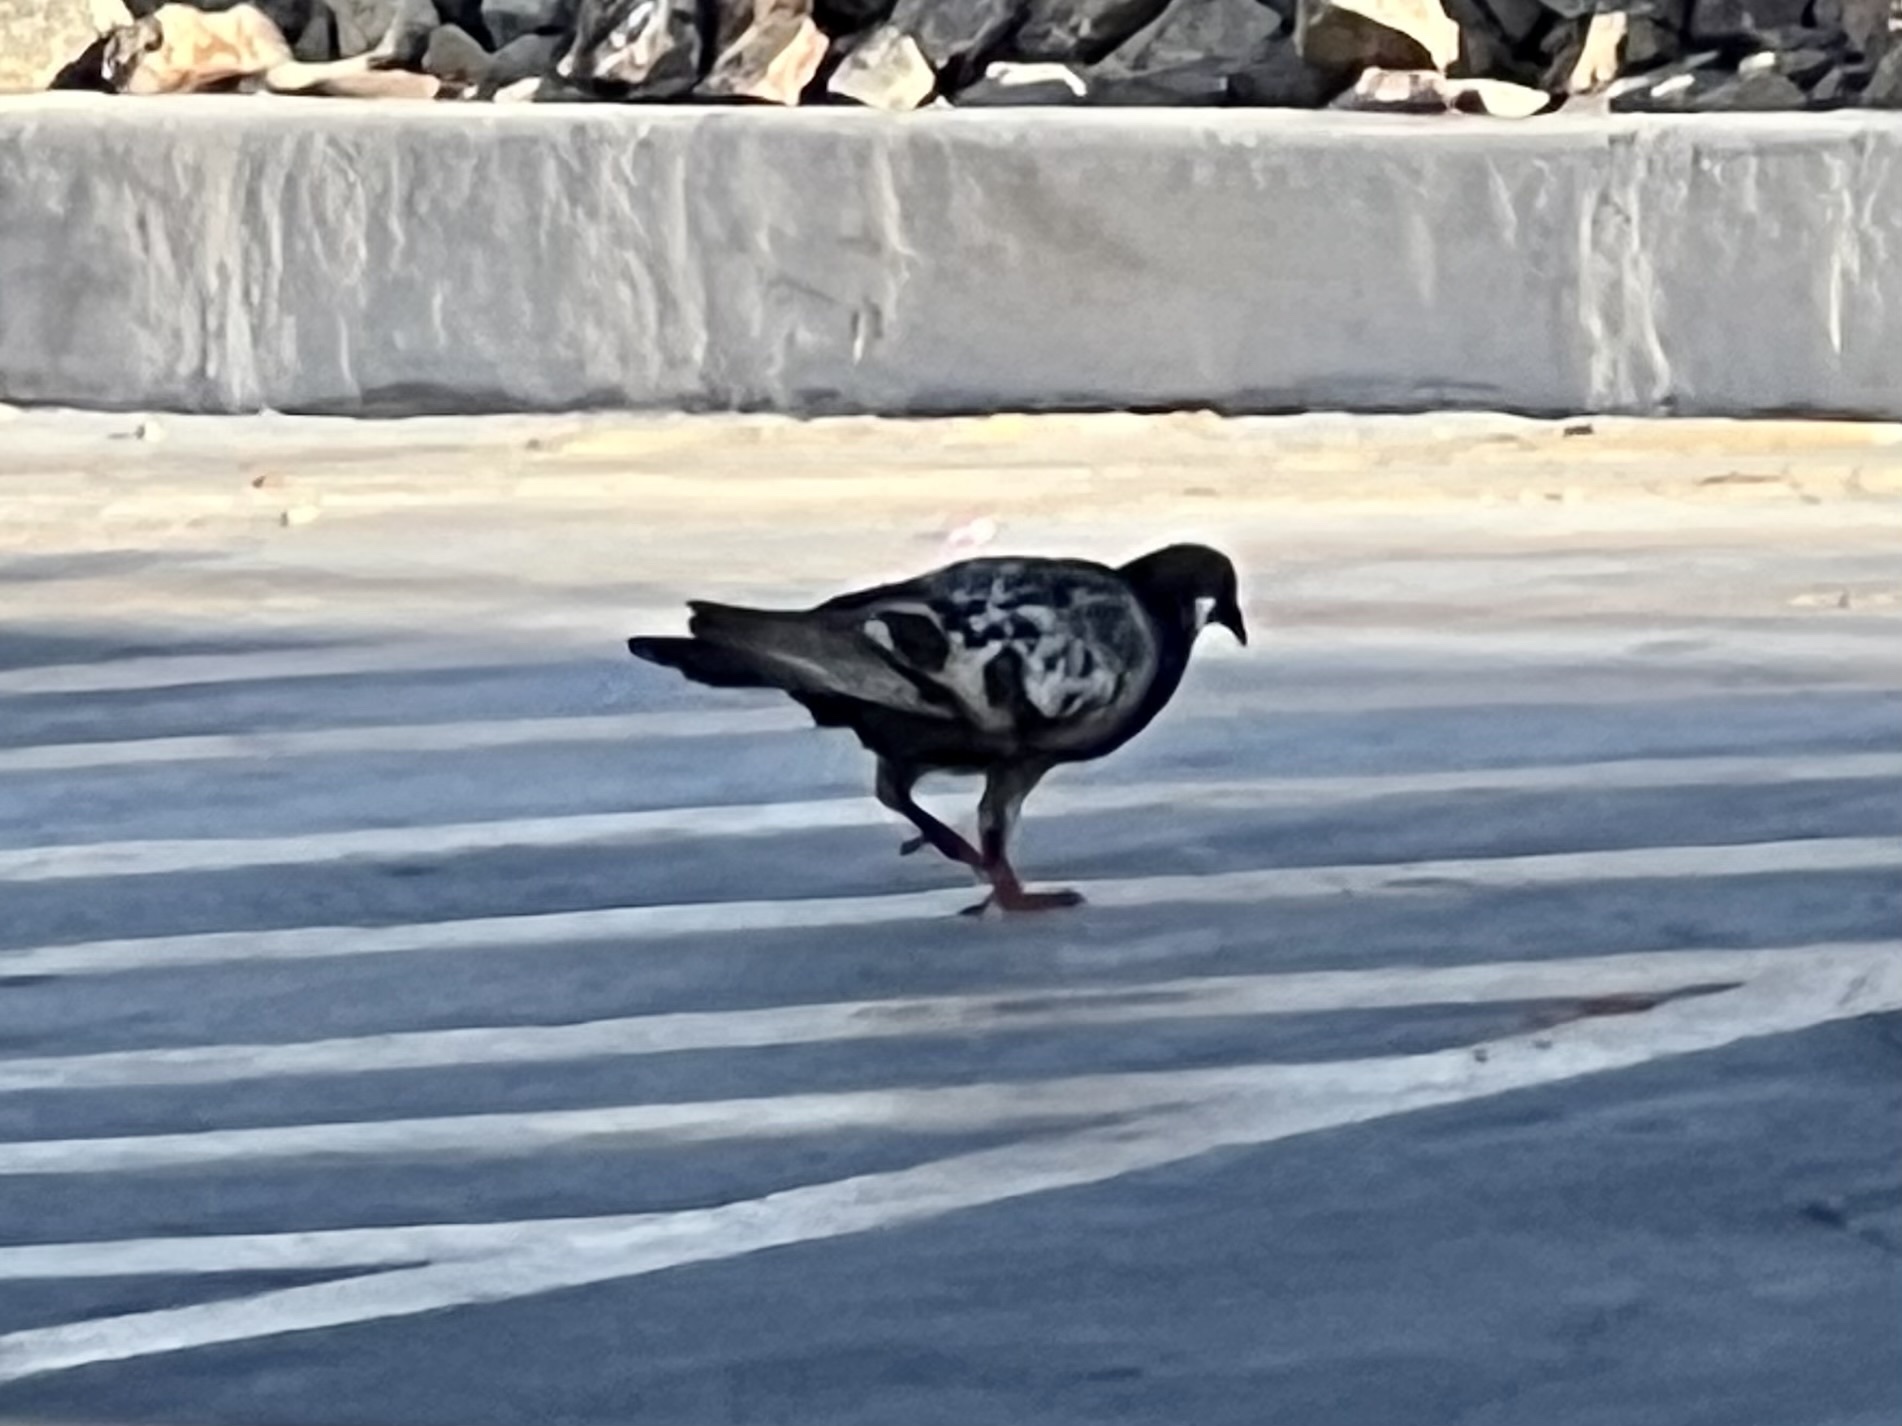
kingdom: Animalia
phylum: Chordata
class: Aves
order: Columbiformes
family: Columbidae
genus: Columba
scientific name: Columba livia
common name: Rock pigeon
